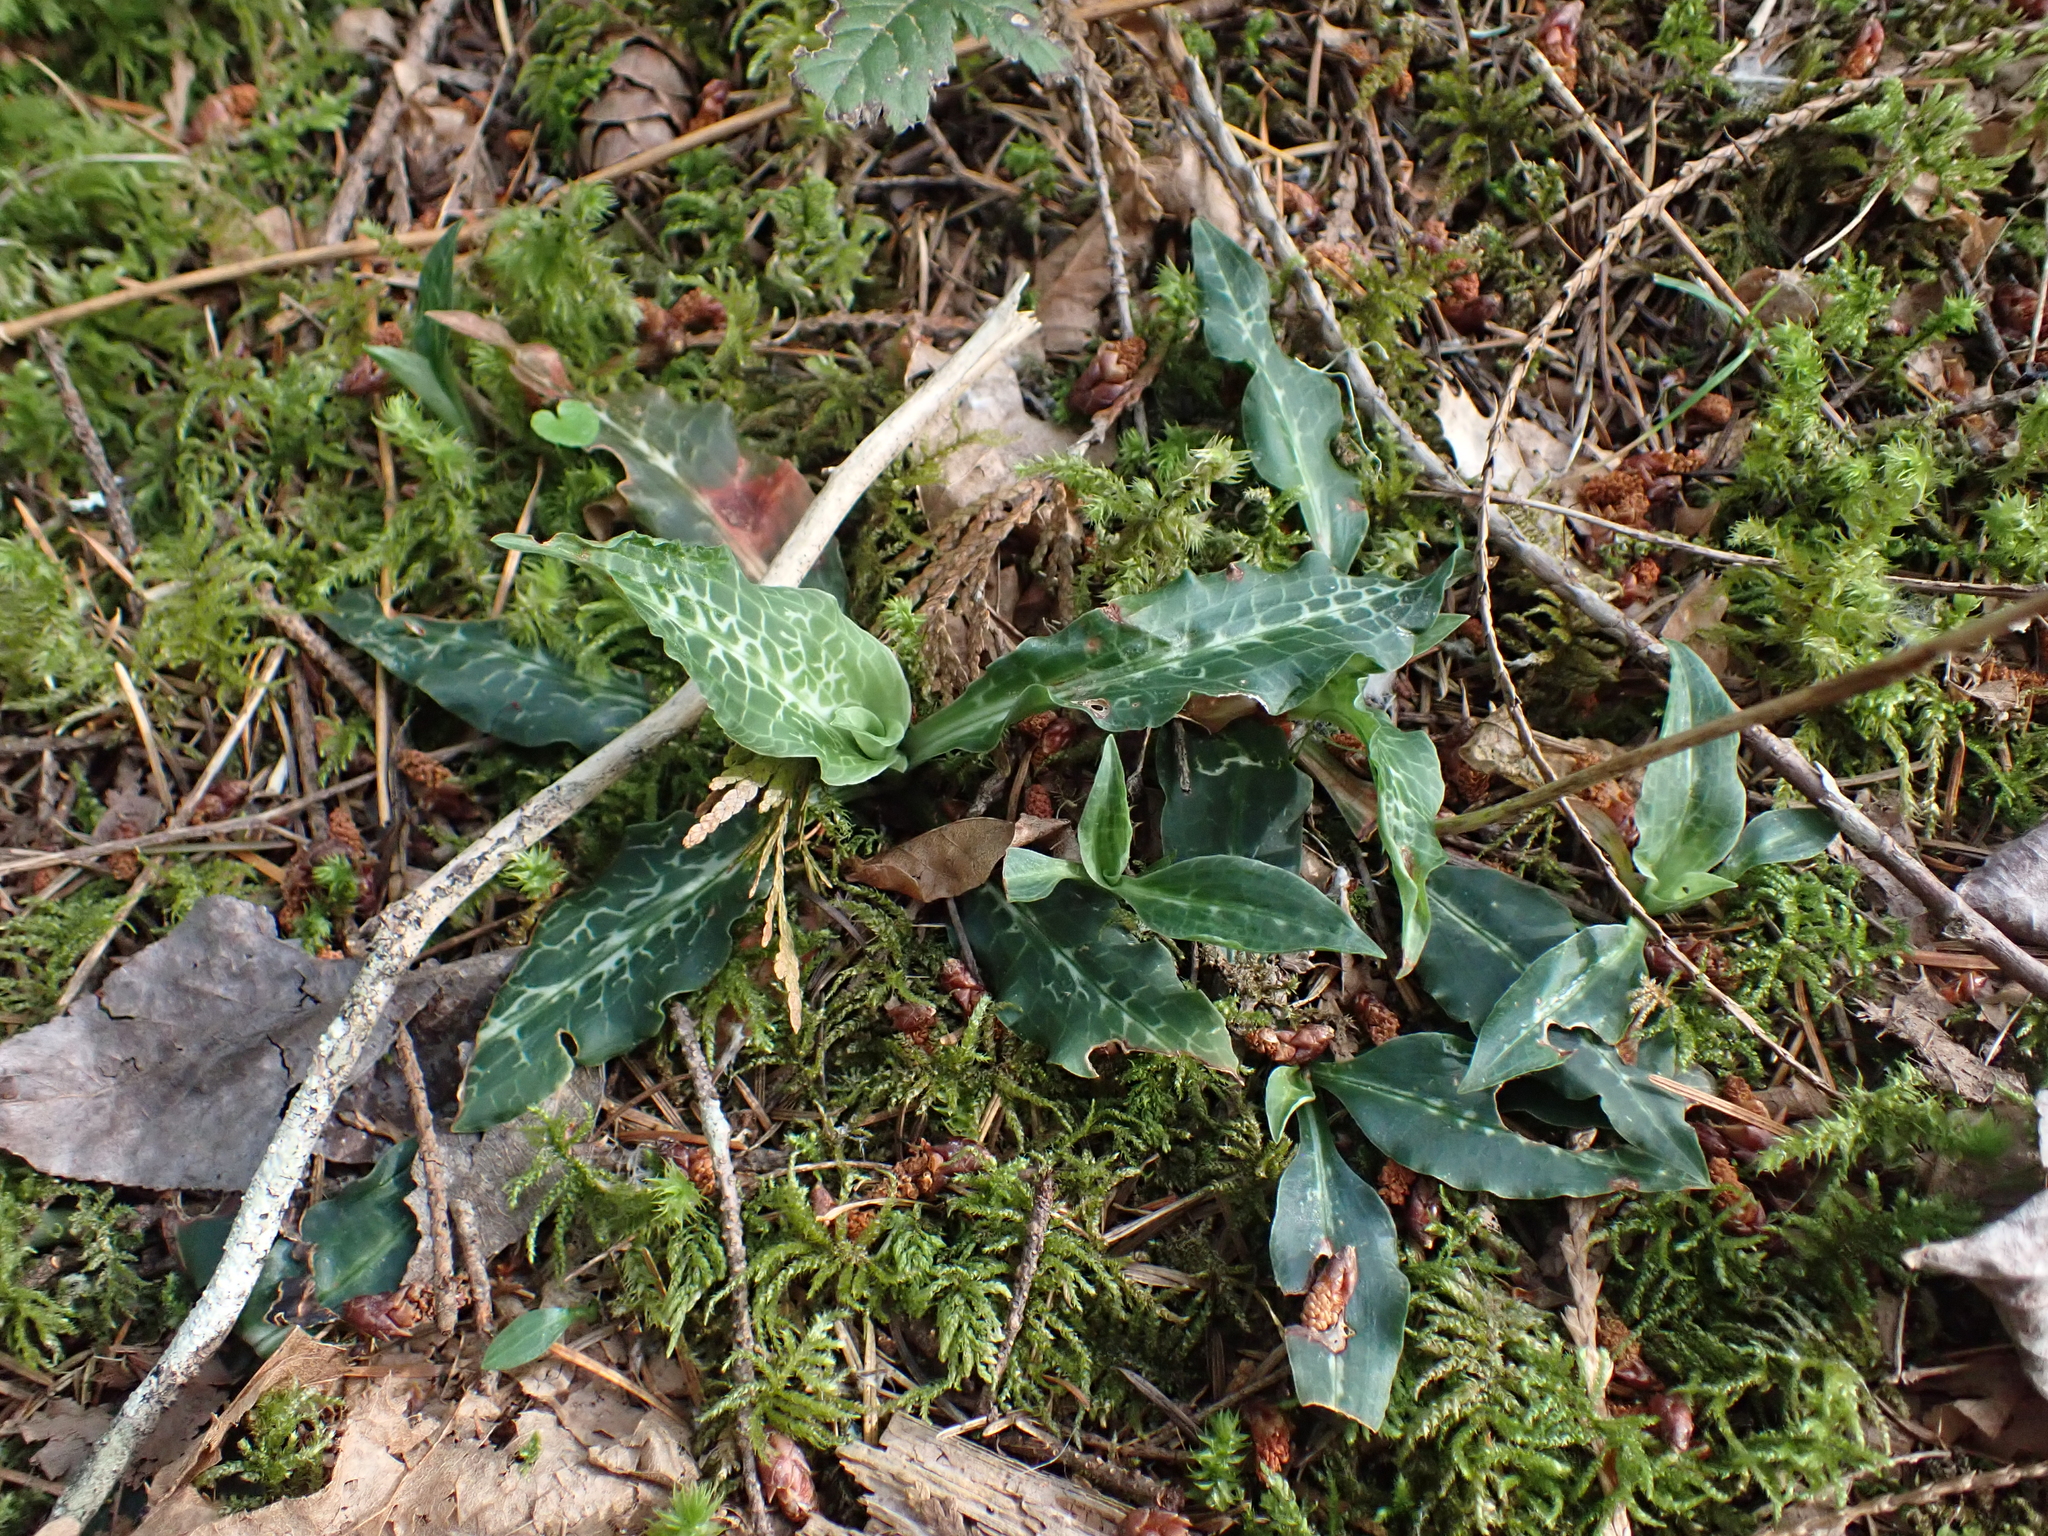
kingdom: Plantae
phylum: Tracheophyta
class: Liliopsida
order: Asparagales
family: Orchidaceae
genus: Goodyera
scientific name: Goodyera oblongifolia
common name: Giant rattlesnake-plantain
